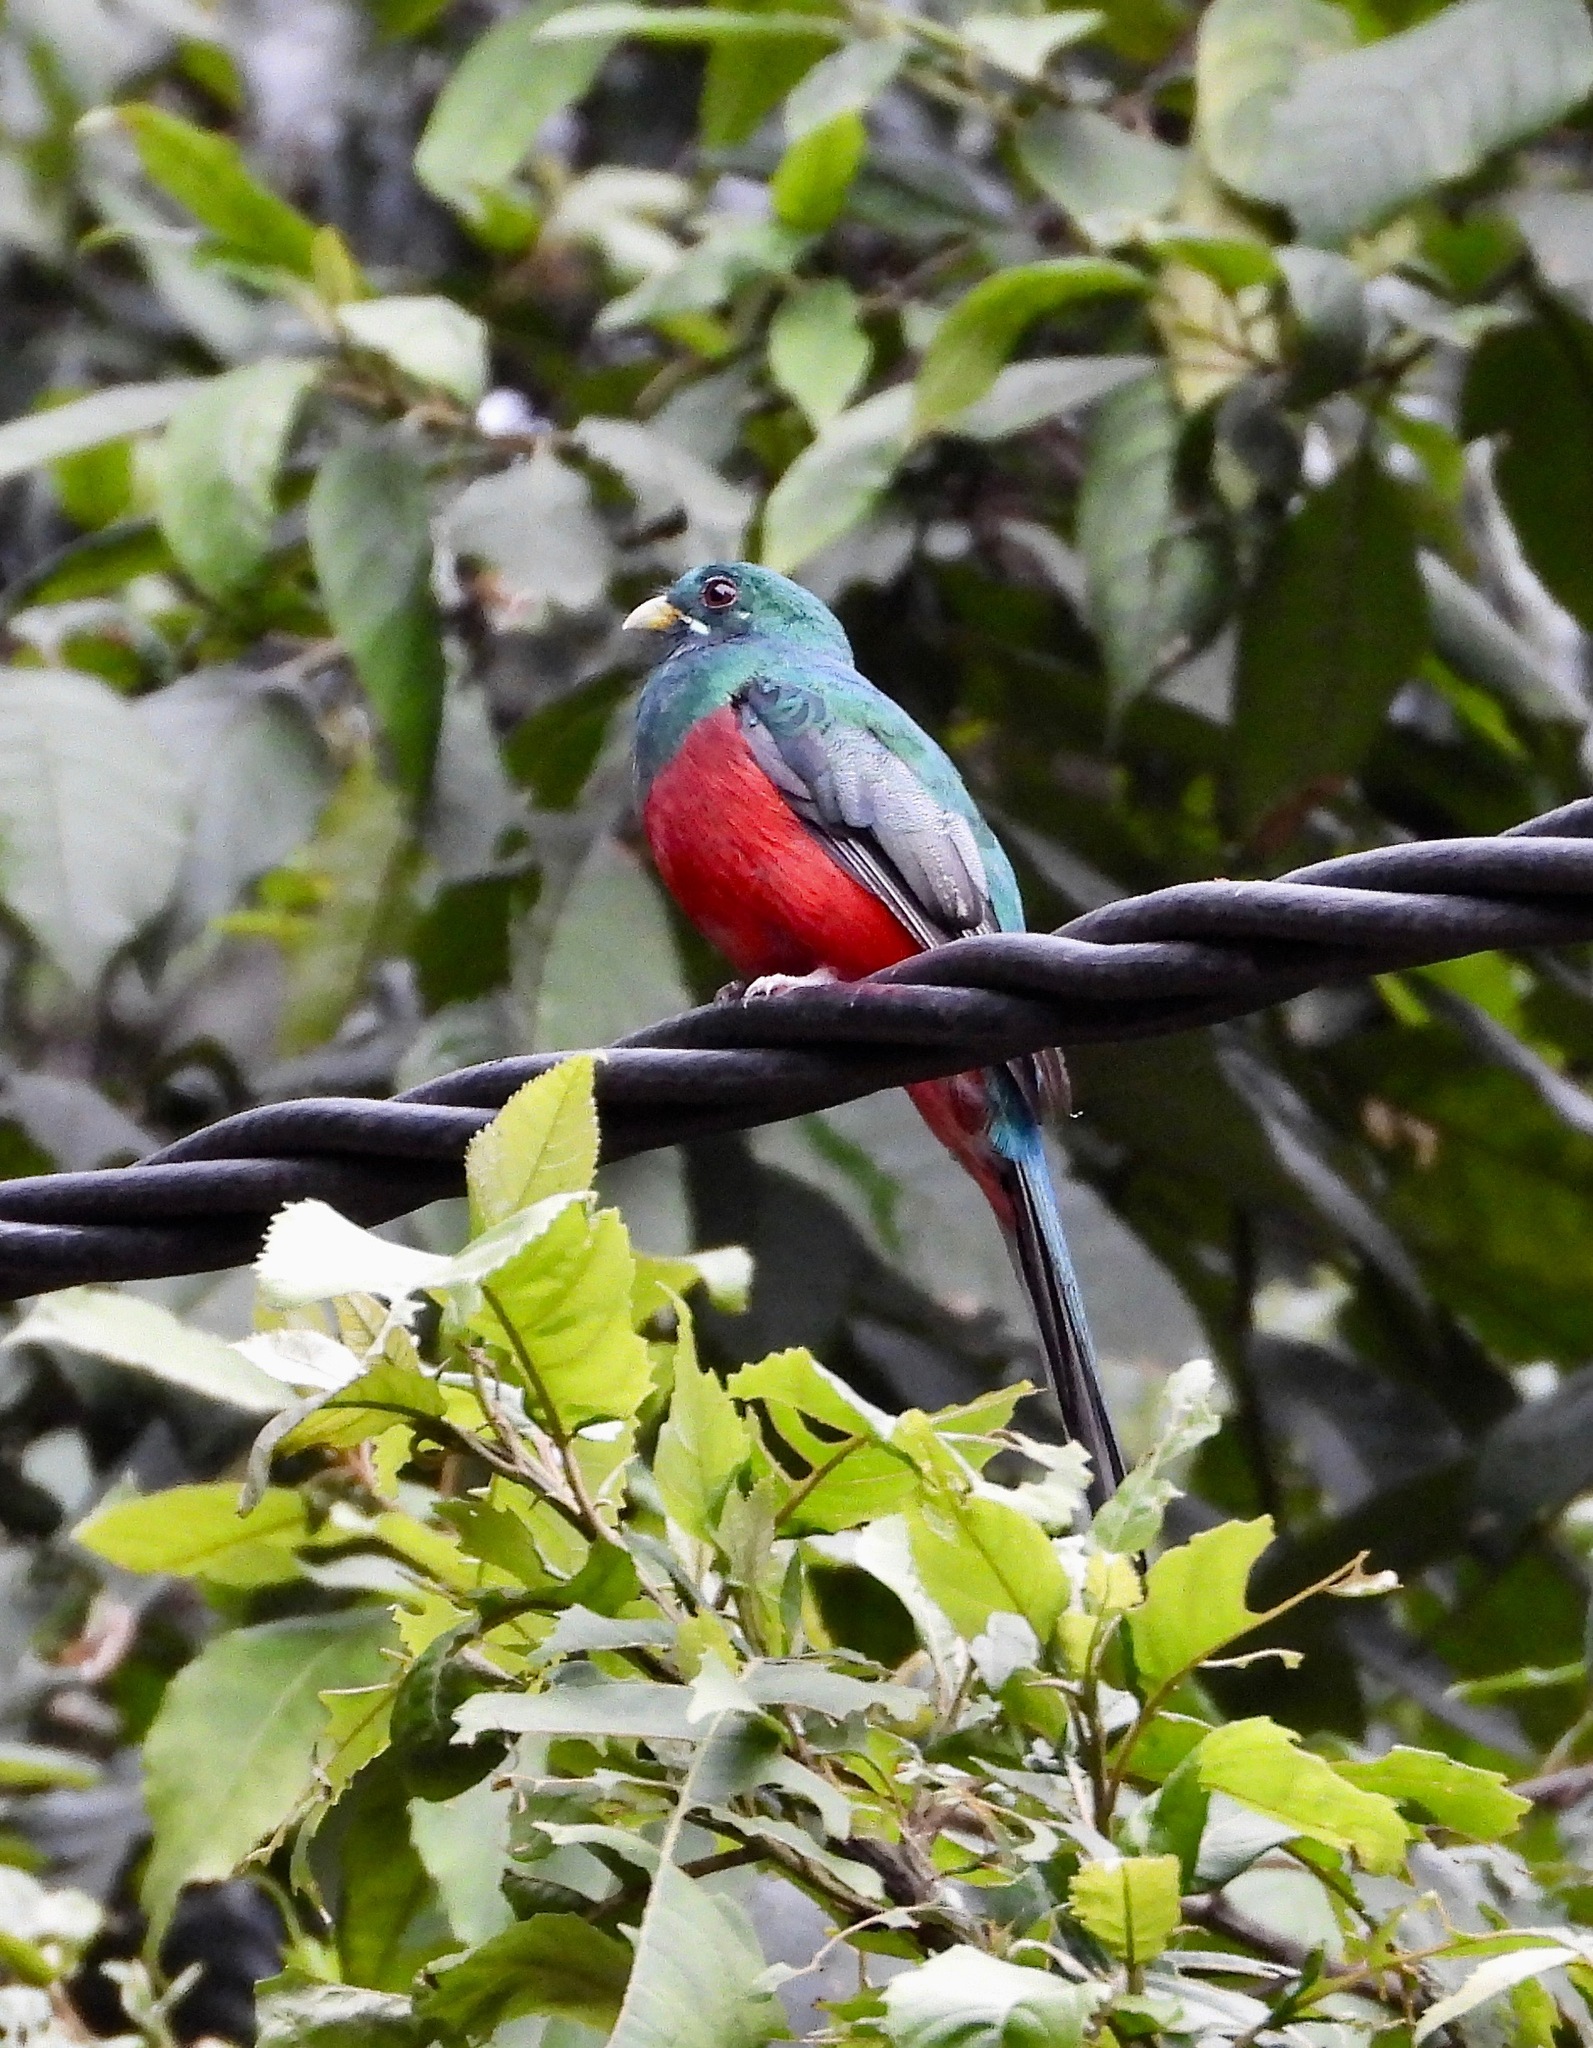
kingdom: Animalia
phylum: Chordata
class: Aves
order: Trogoniformes
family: Trogonidae
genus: Apaloderma
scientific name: Apaloderma narina
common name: Narina trogon
